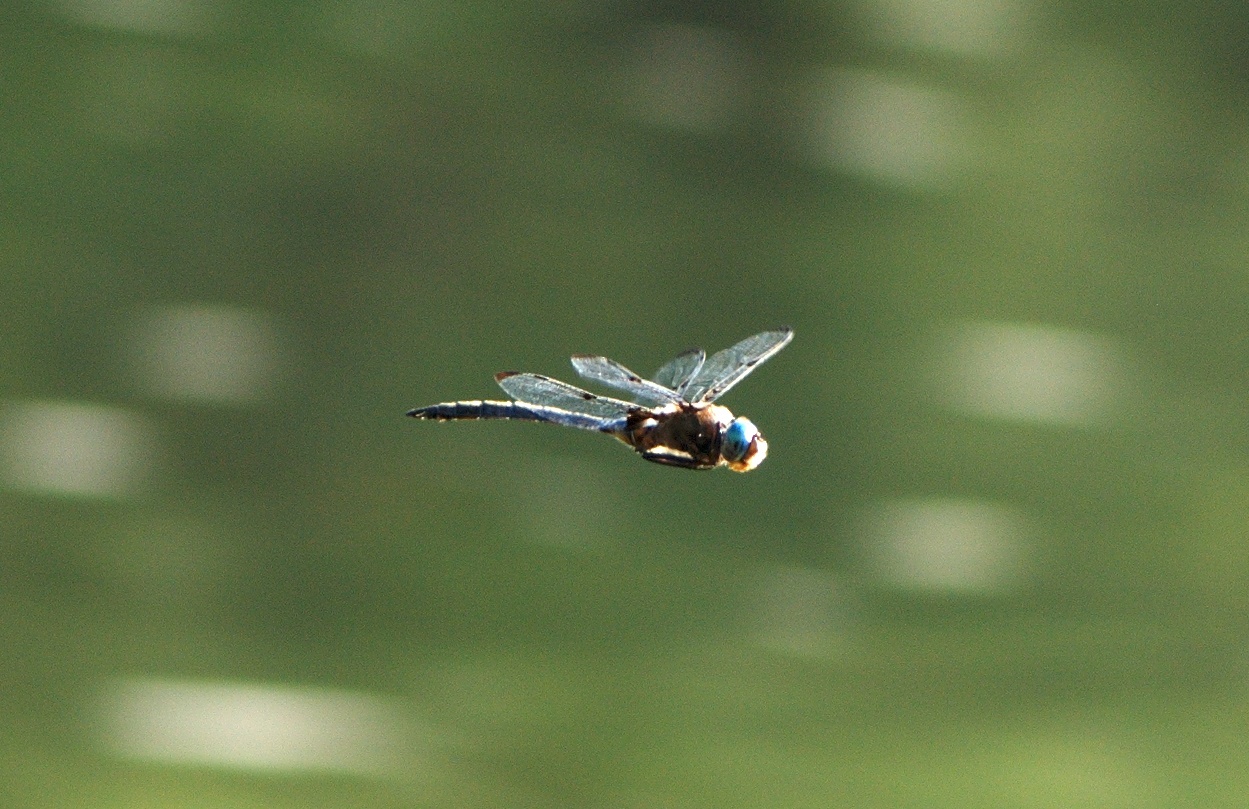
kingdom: Animalia
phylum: Arthropoda
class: Insecta
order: Odonata
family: Corduliidae
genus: Epitheca
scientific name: Epitheca princeps
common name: Prince baskettail
